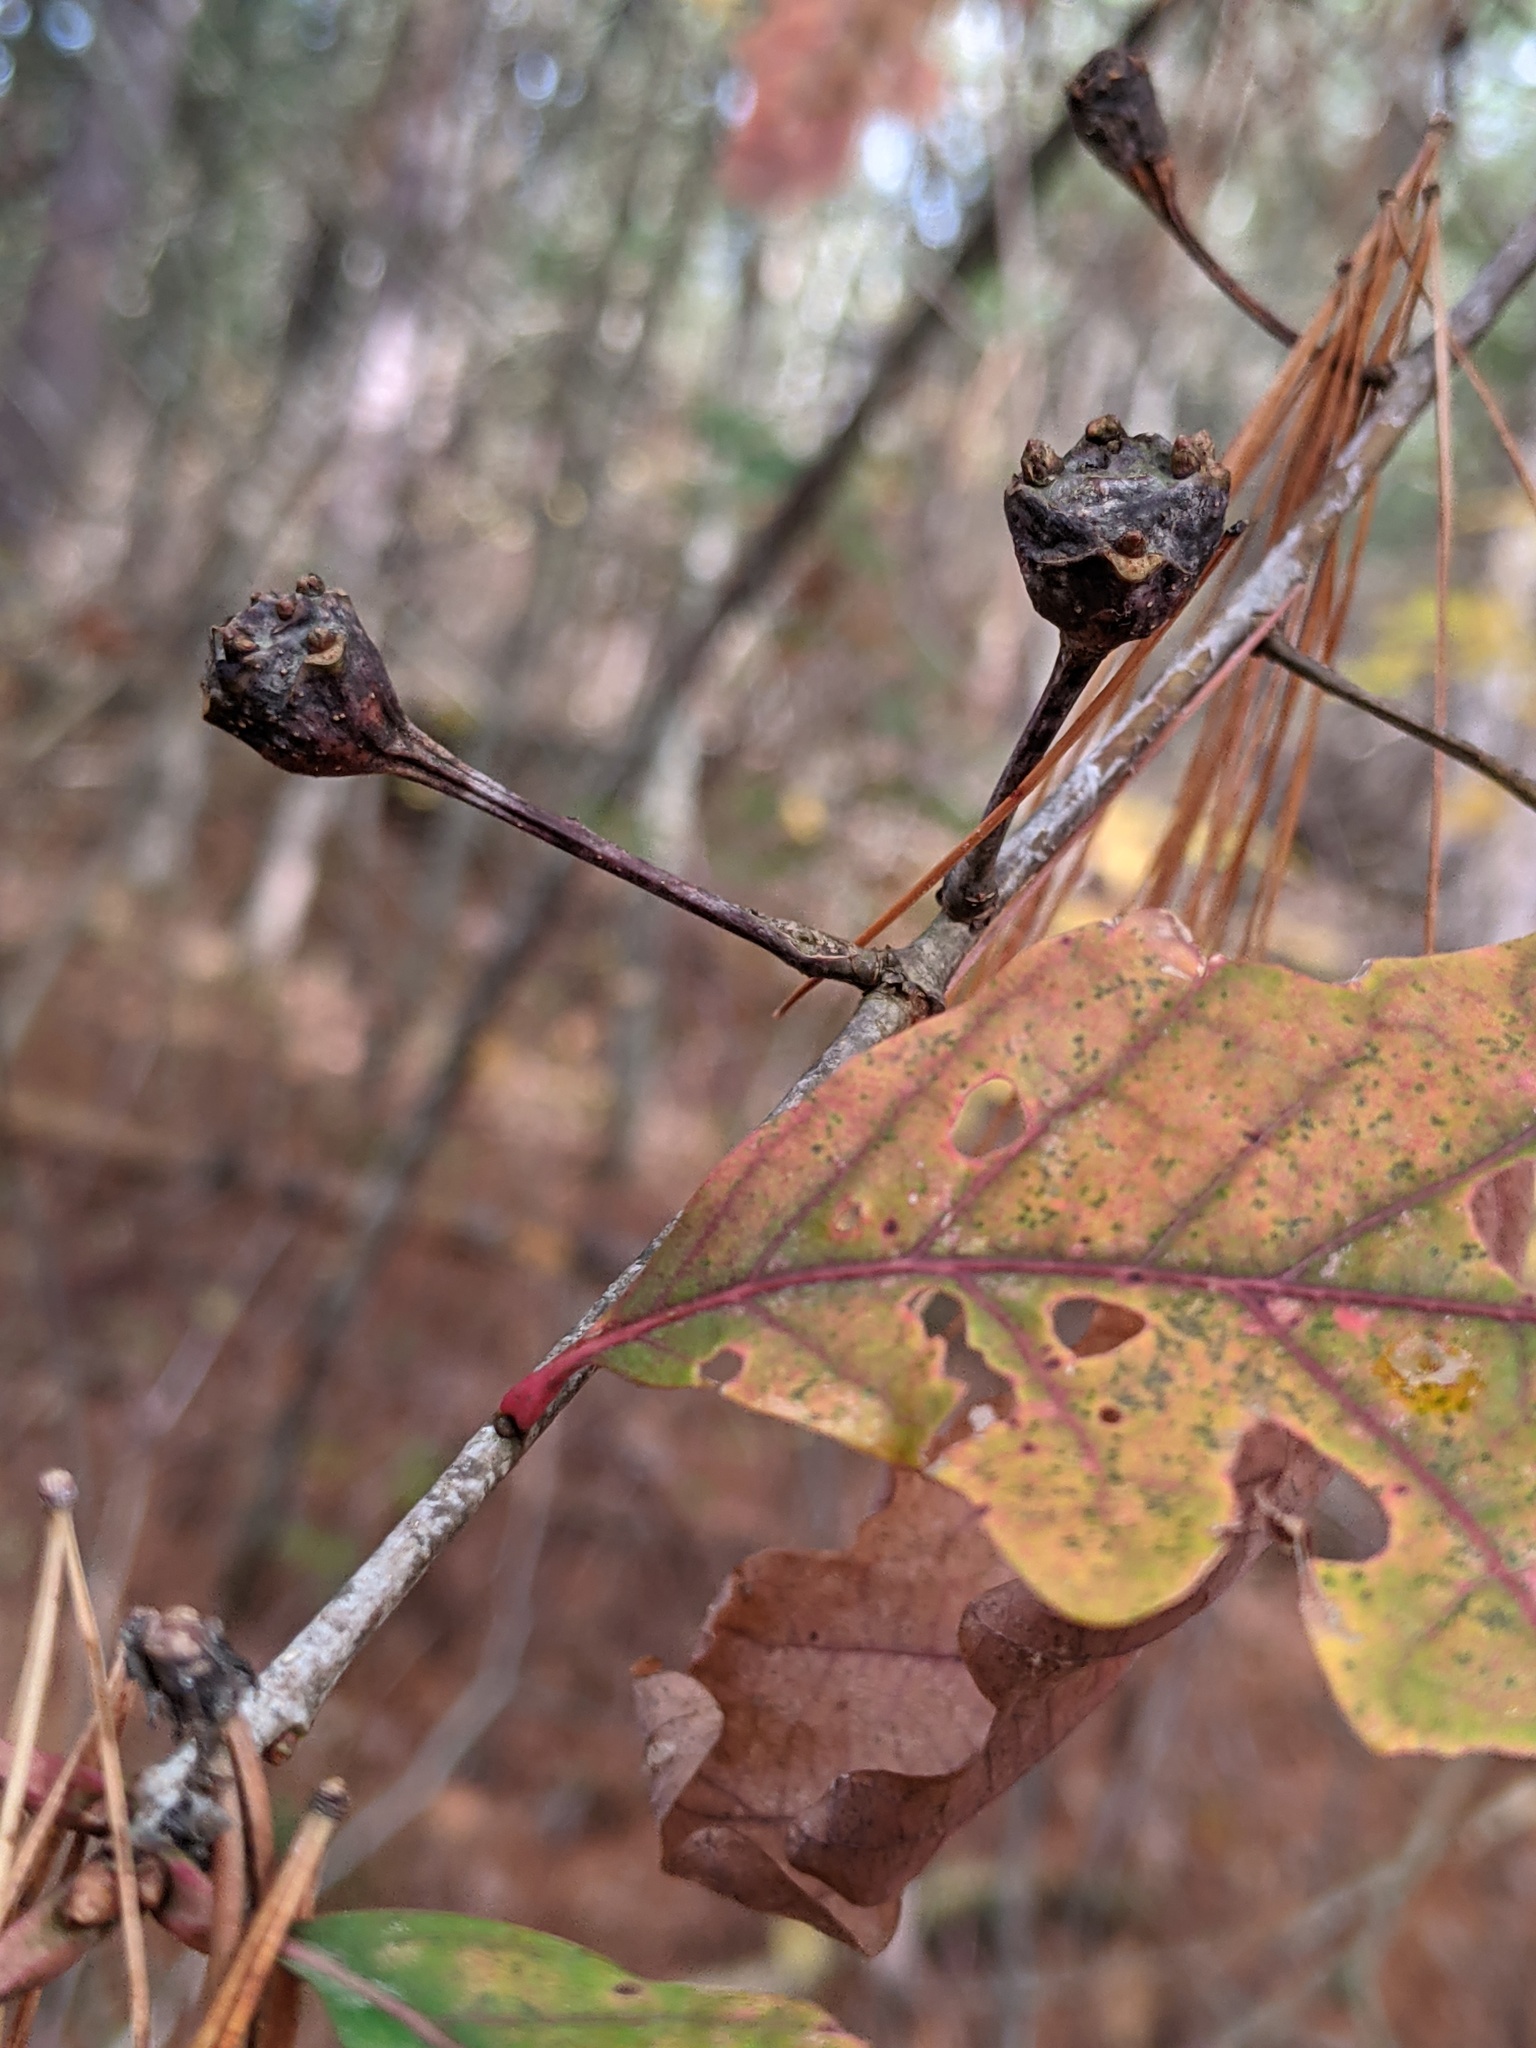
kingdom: Animalia
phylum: Arthropoda
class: Insecta
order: Hymenoptera
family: Cynipidae
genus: Callirhytis
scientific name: Callirhytis clavula
